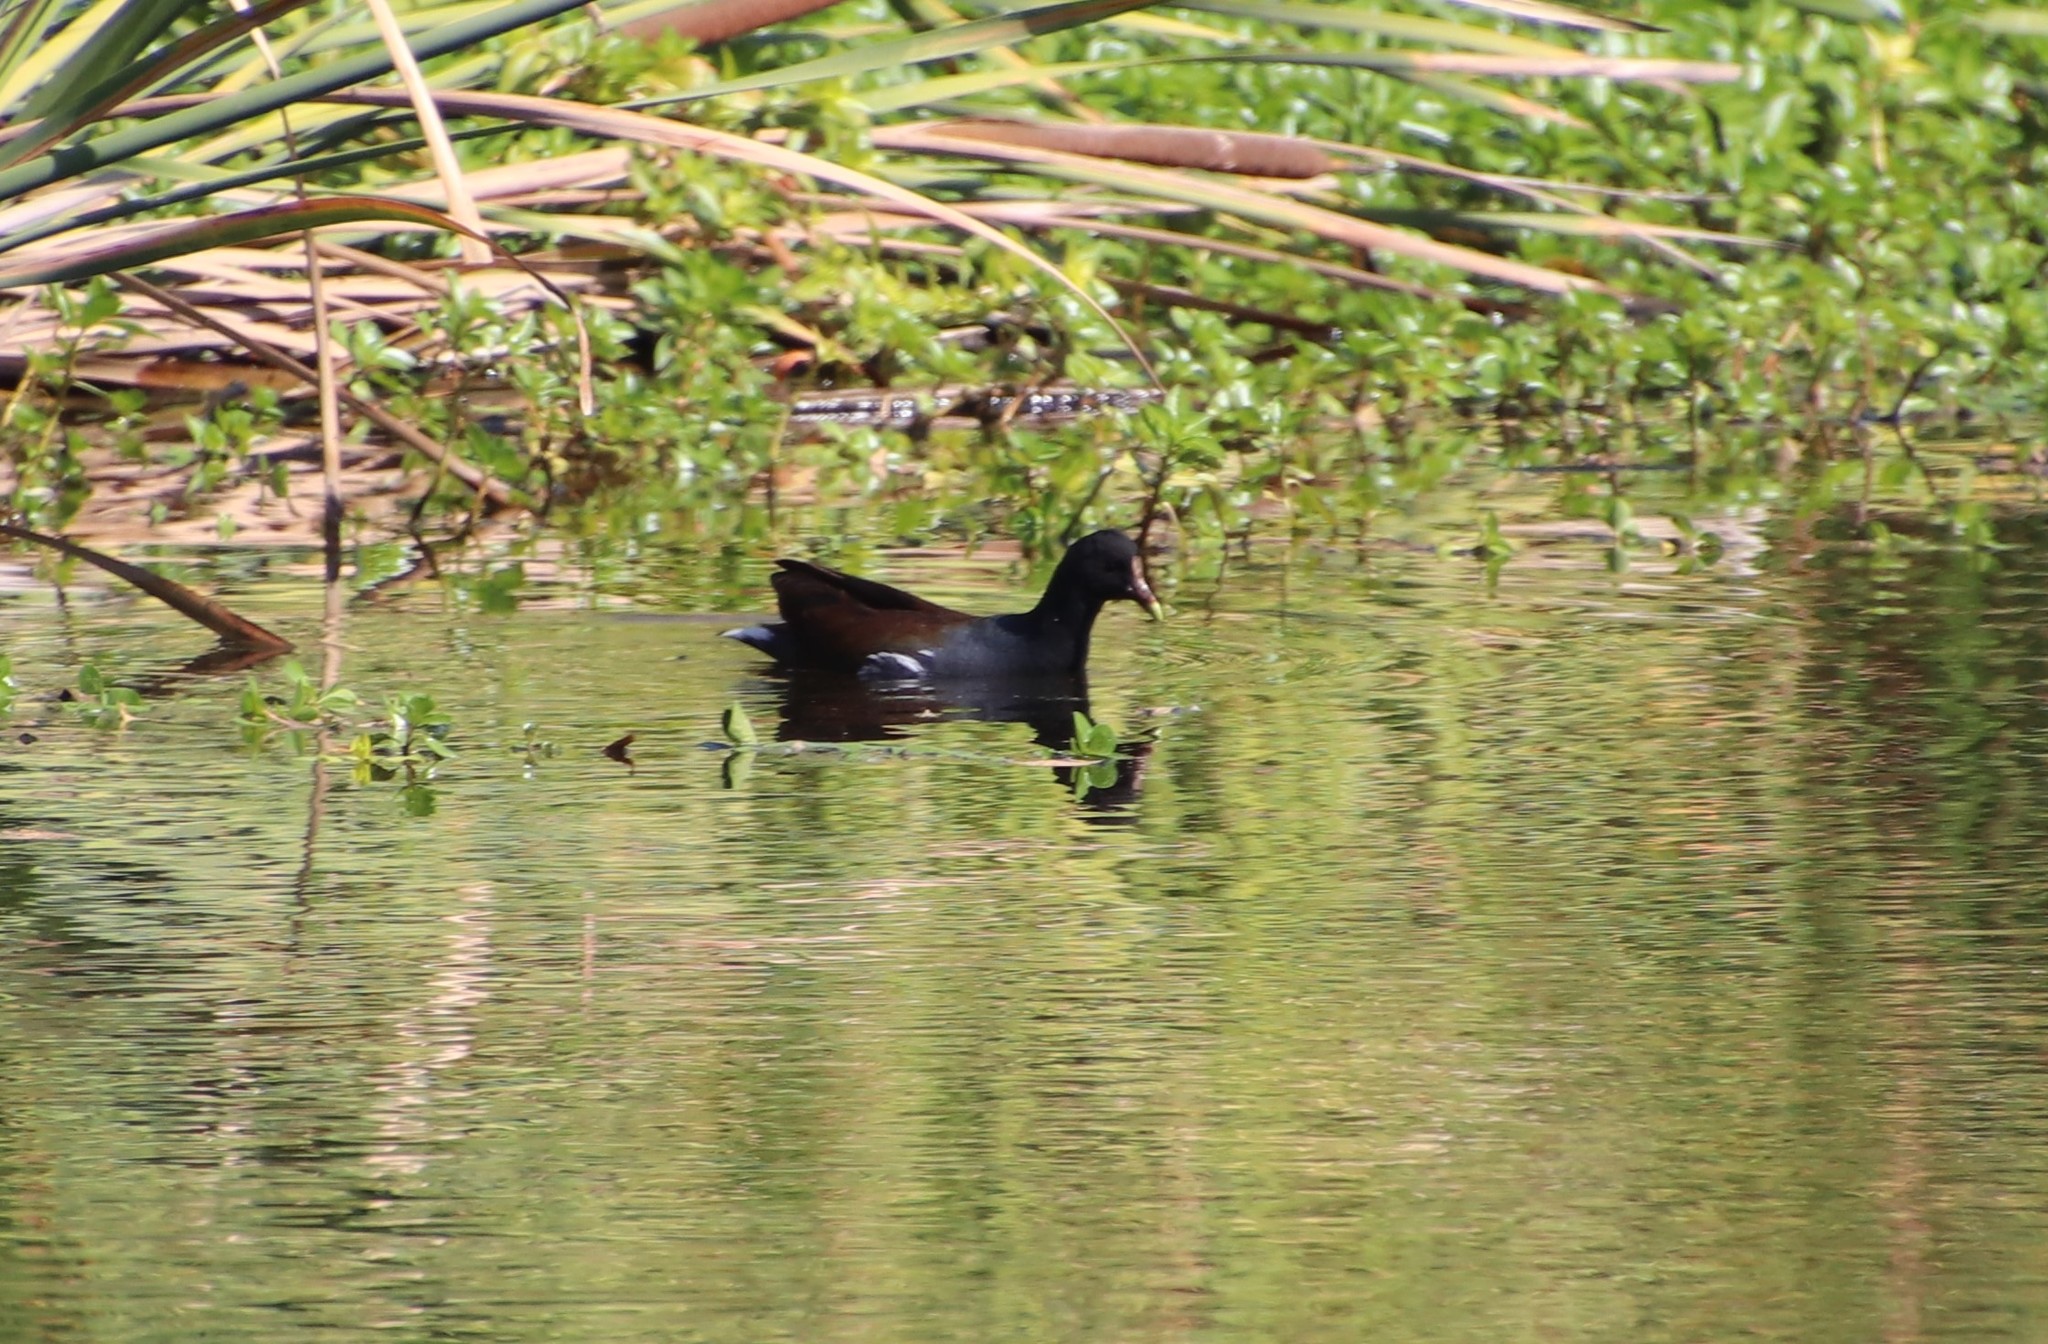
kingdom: Animalia
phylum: Chordata
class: Aves
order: Gruiformes
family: Rallidae
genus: Gallinula
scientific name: Gallinula chloropus
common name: Common moorhen
